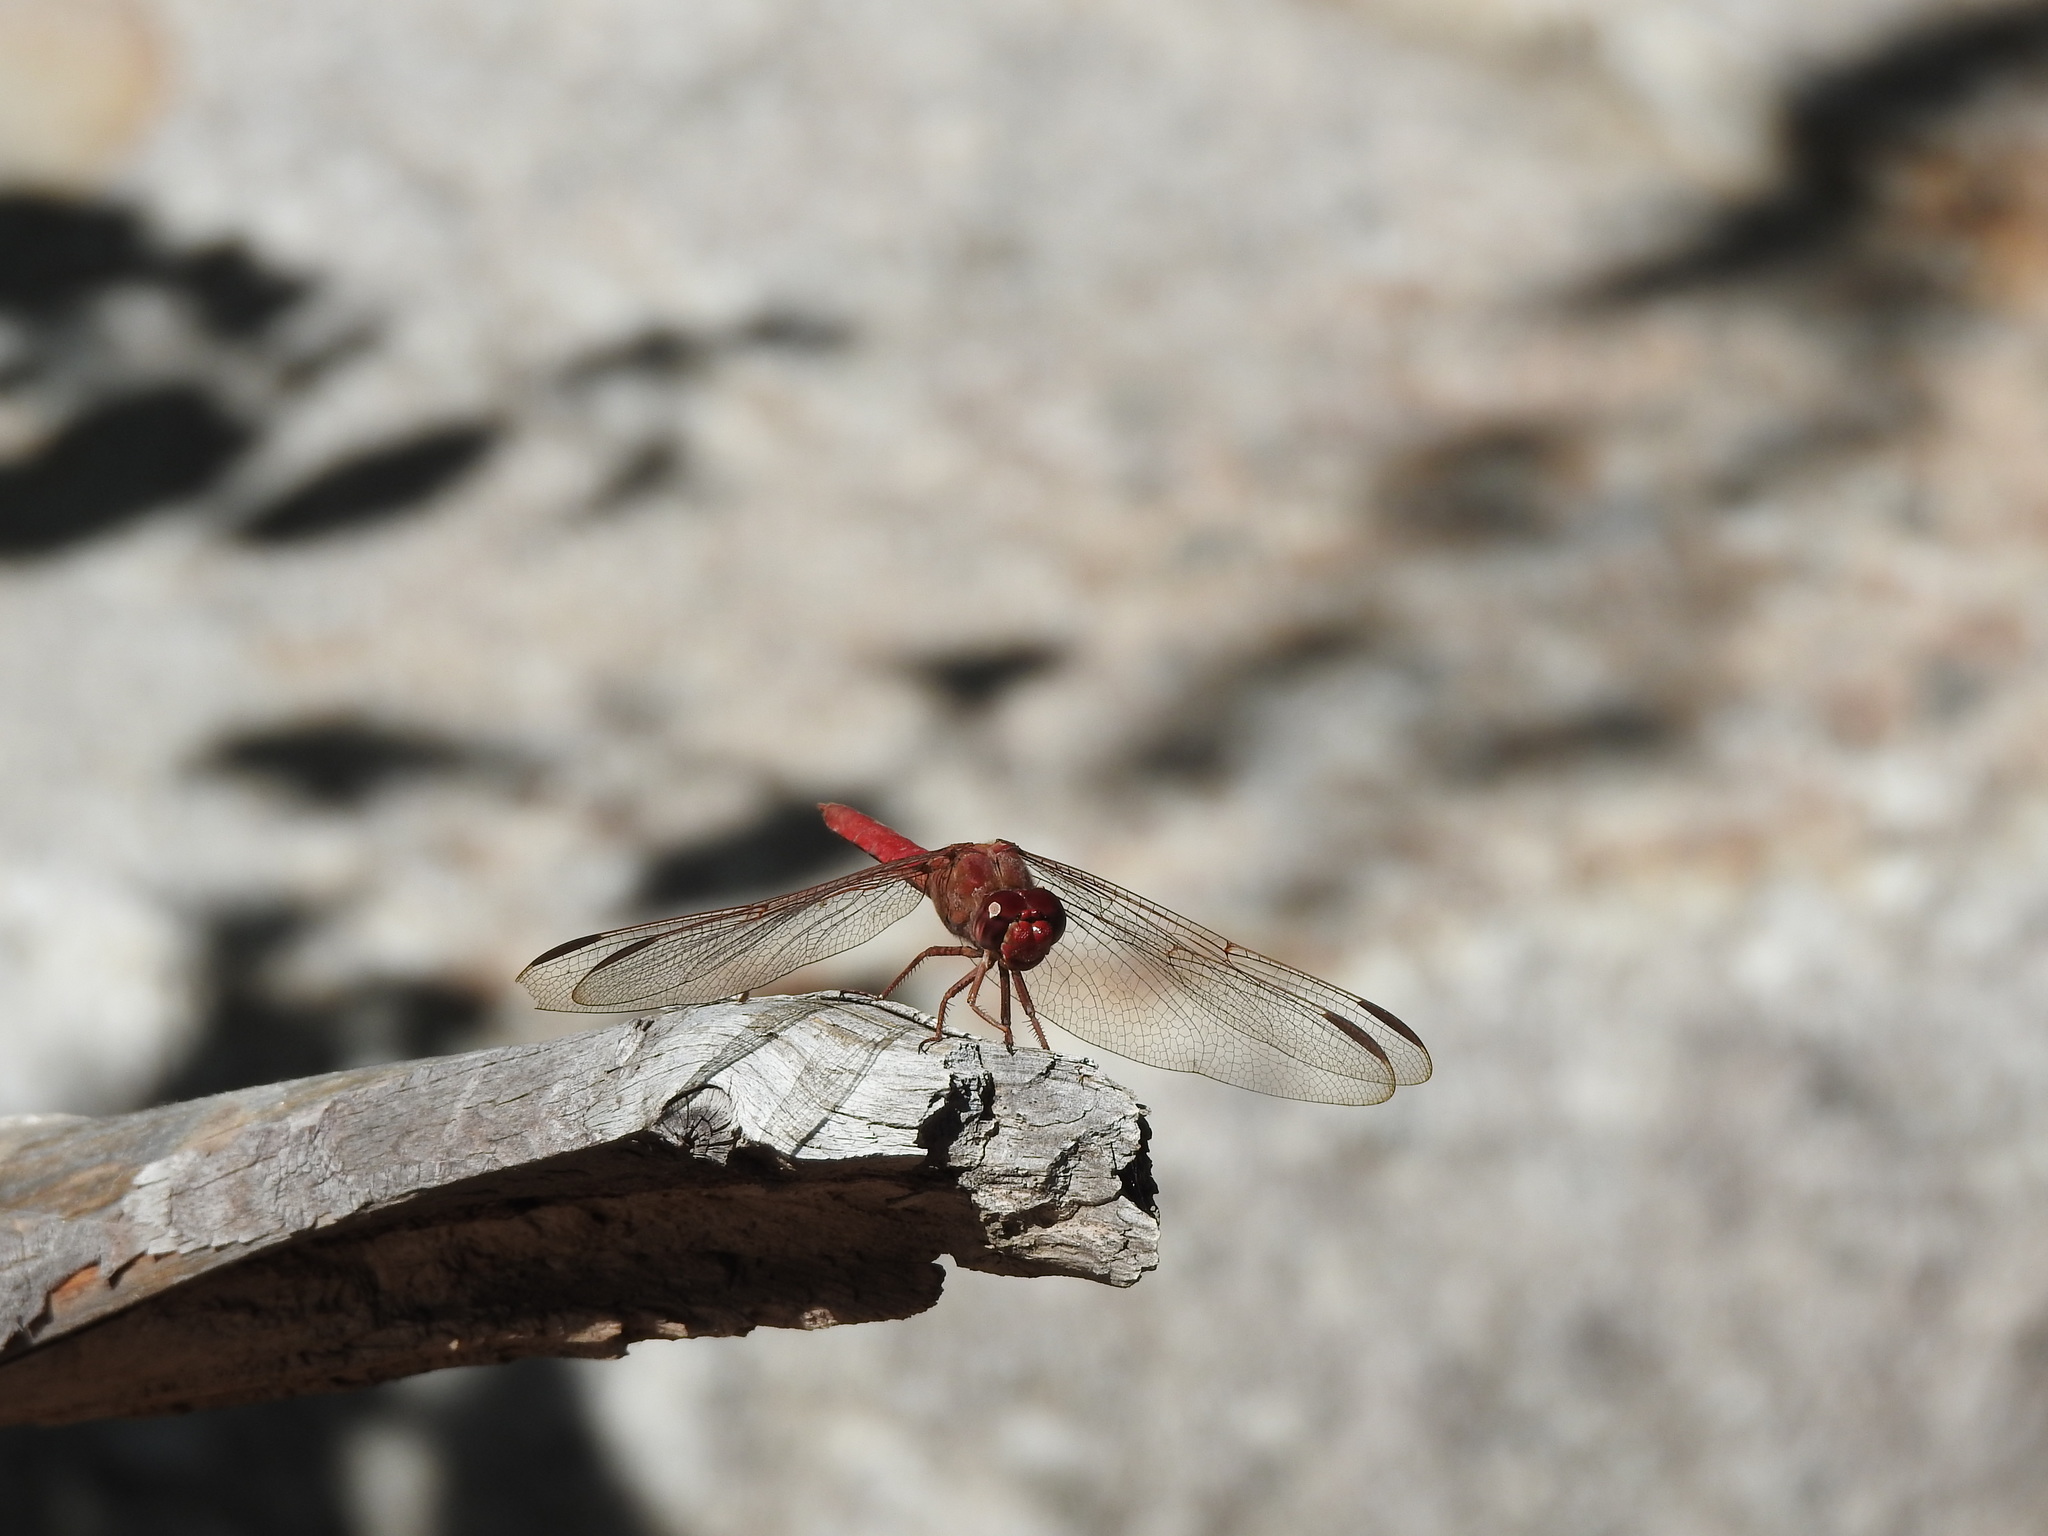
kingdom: Animalia
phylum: Arthropoda
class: Insecta
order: Odonata
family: Libellulidae
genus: Orthemis
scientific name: Orthemis nodiplaga
